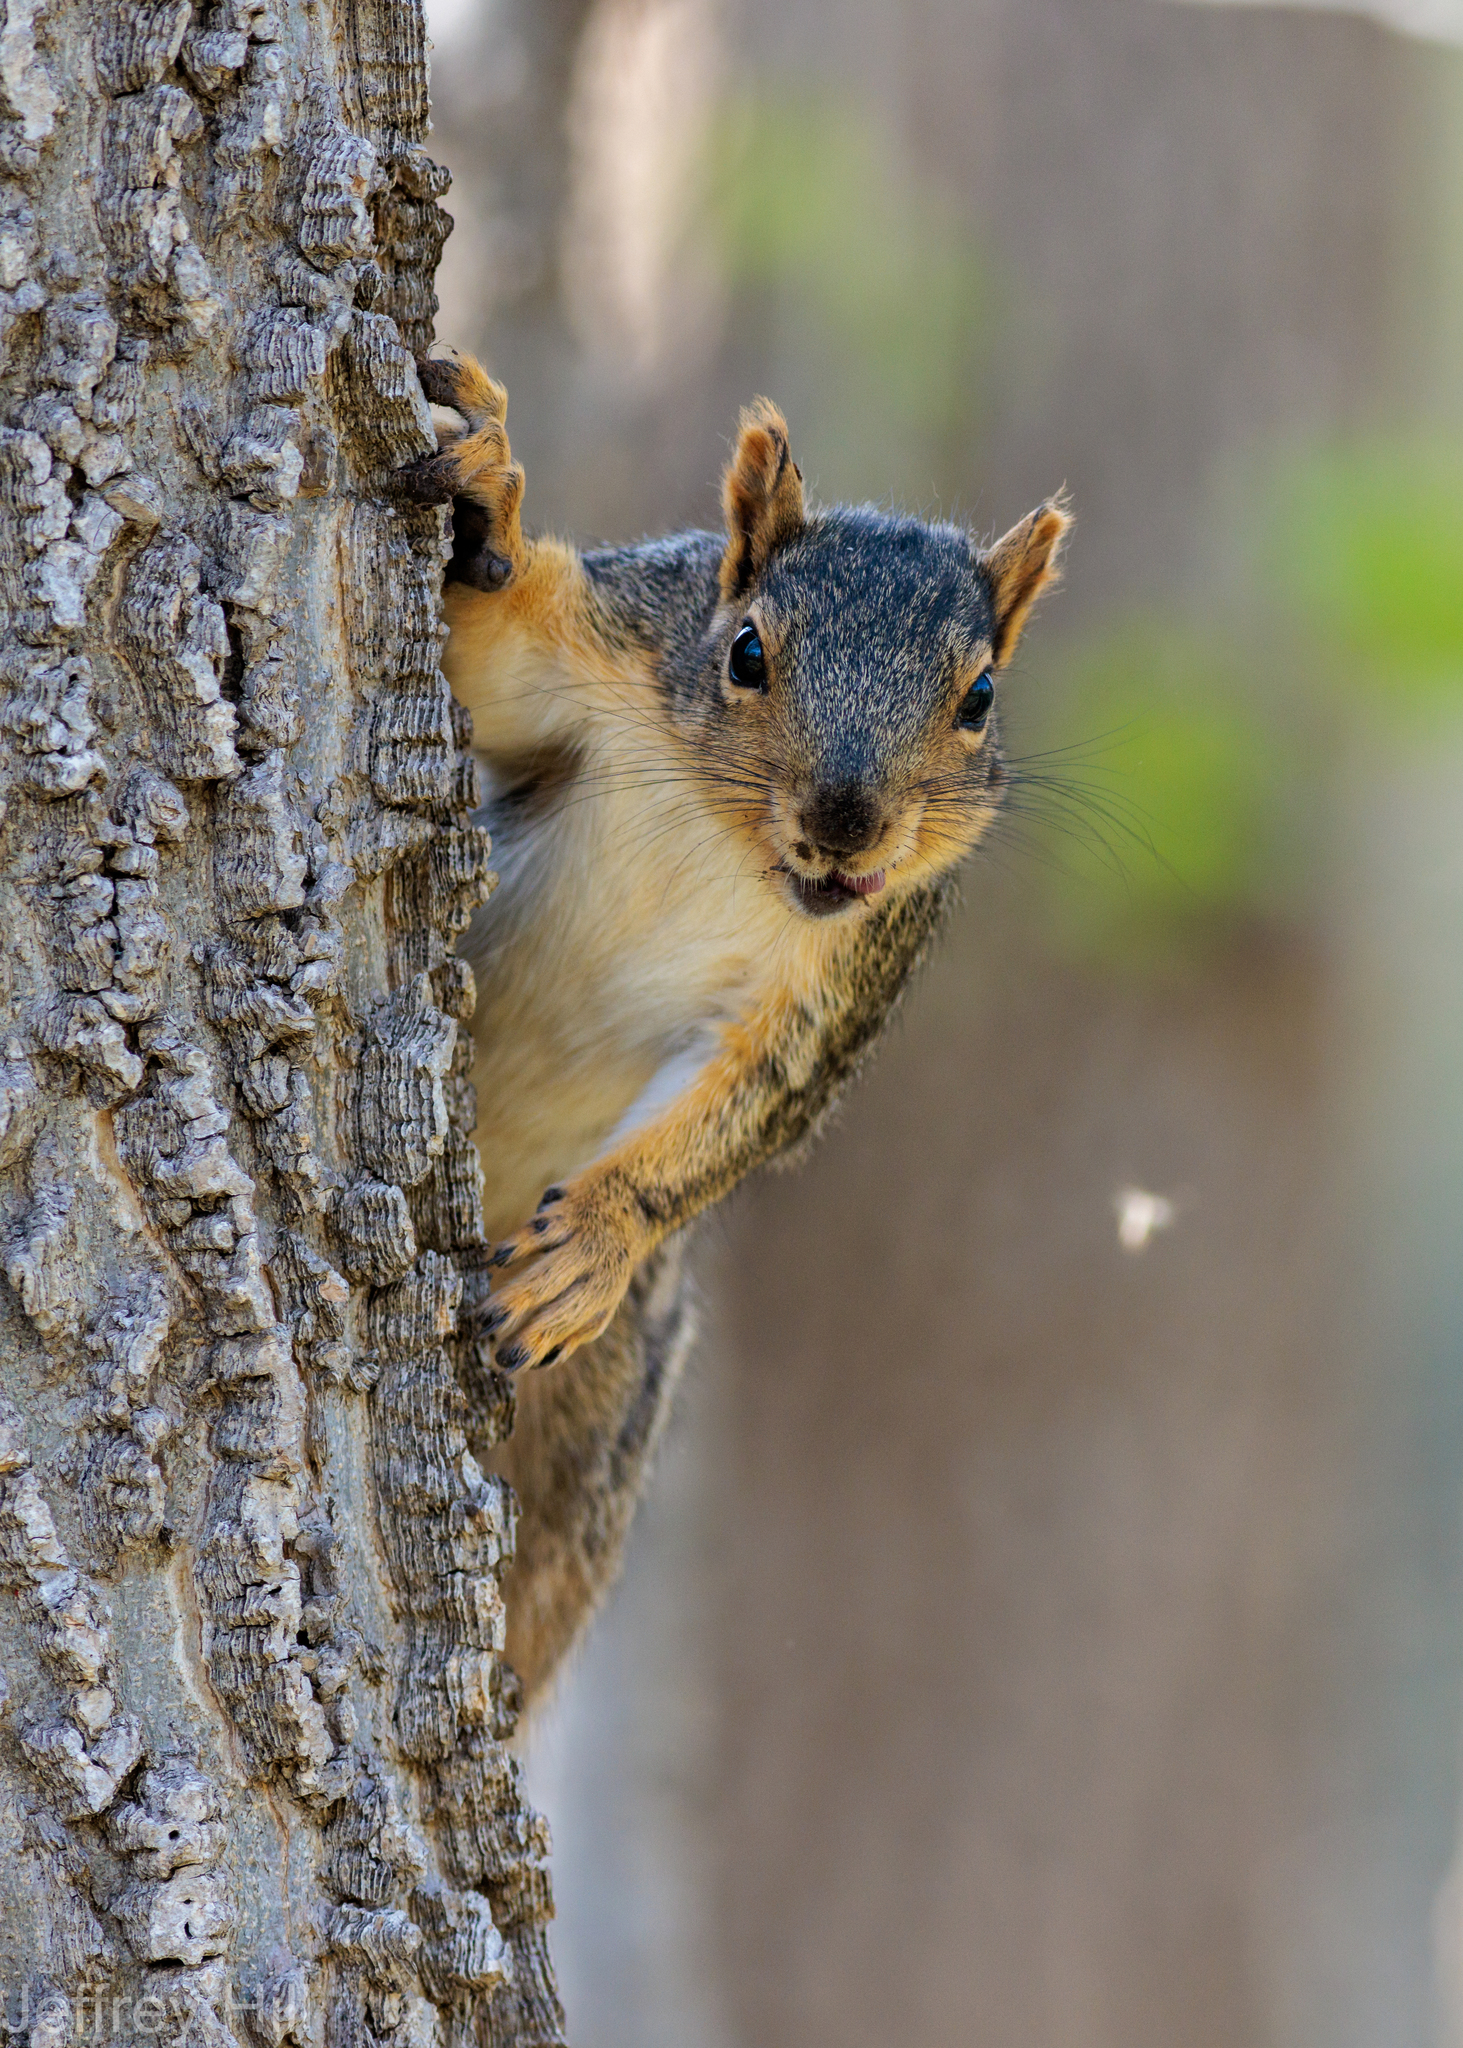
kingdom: Animalia
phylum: Chordata
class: Mammalia
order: Rodentia
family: Sciuridae
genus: Sciurus
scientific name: Sciurus niger
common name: Fox squirrel
